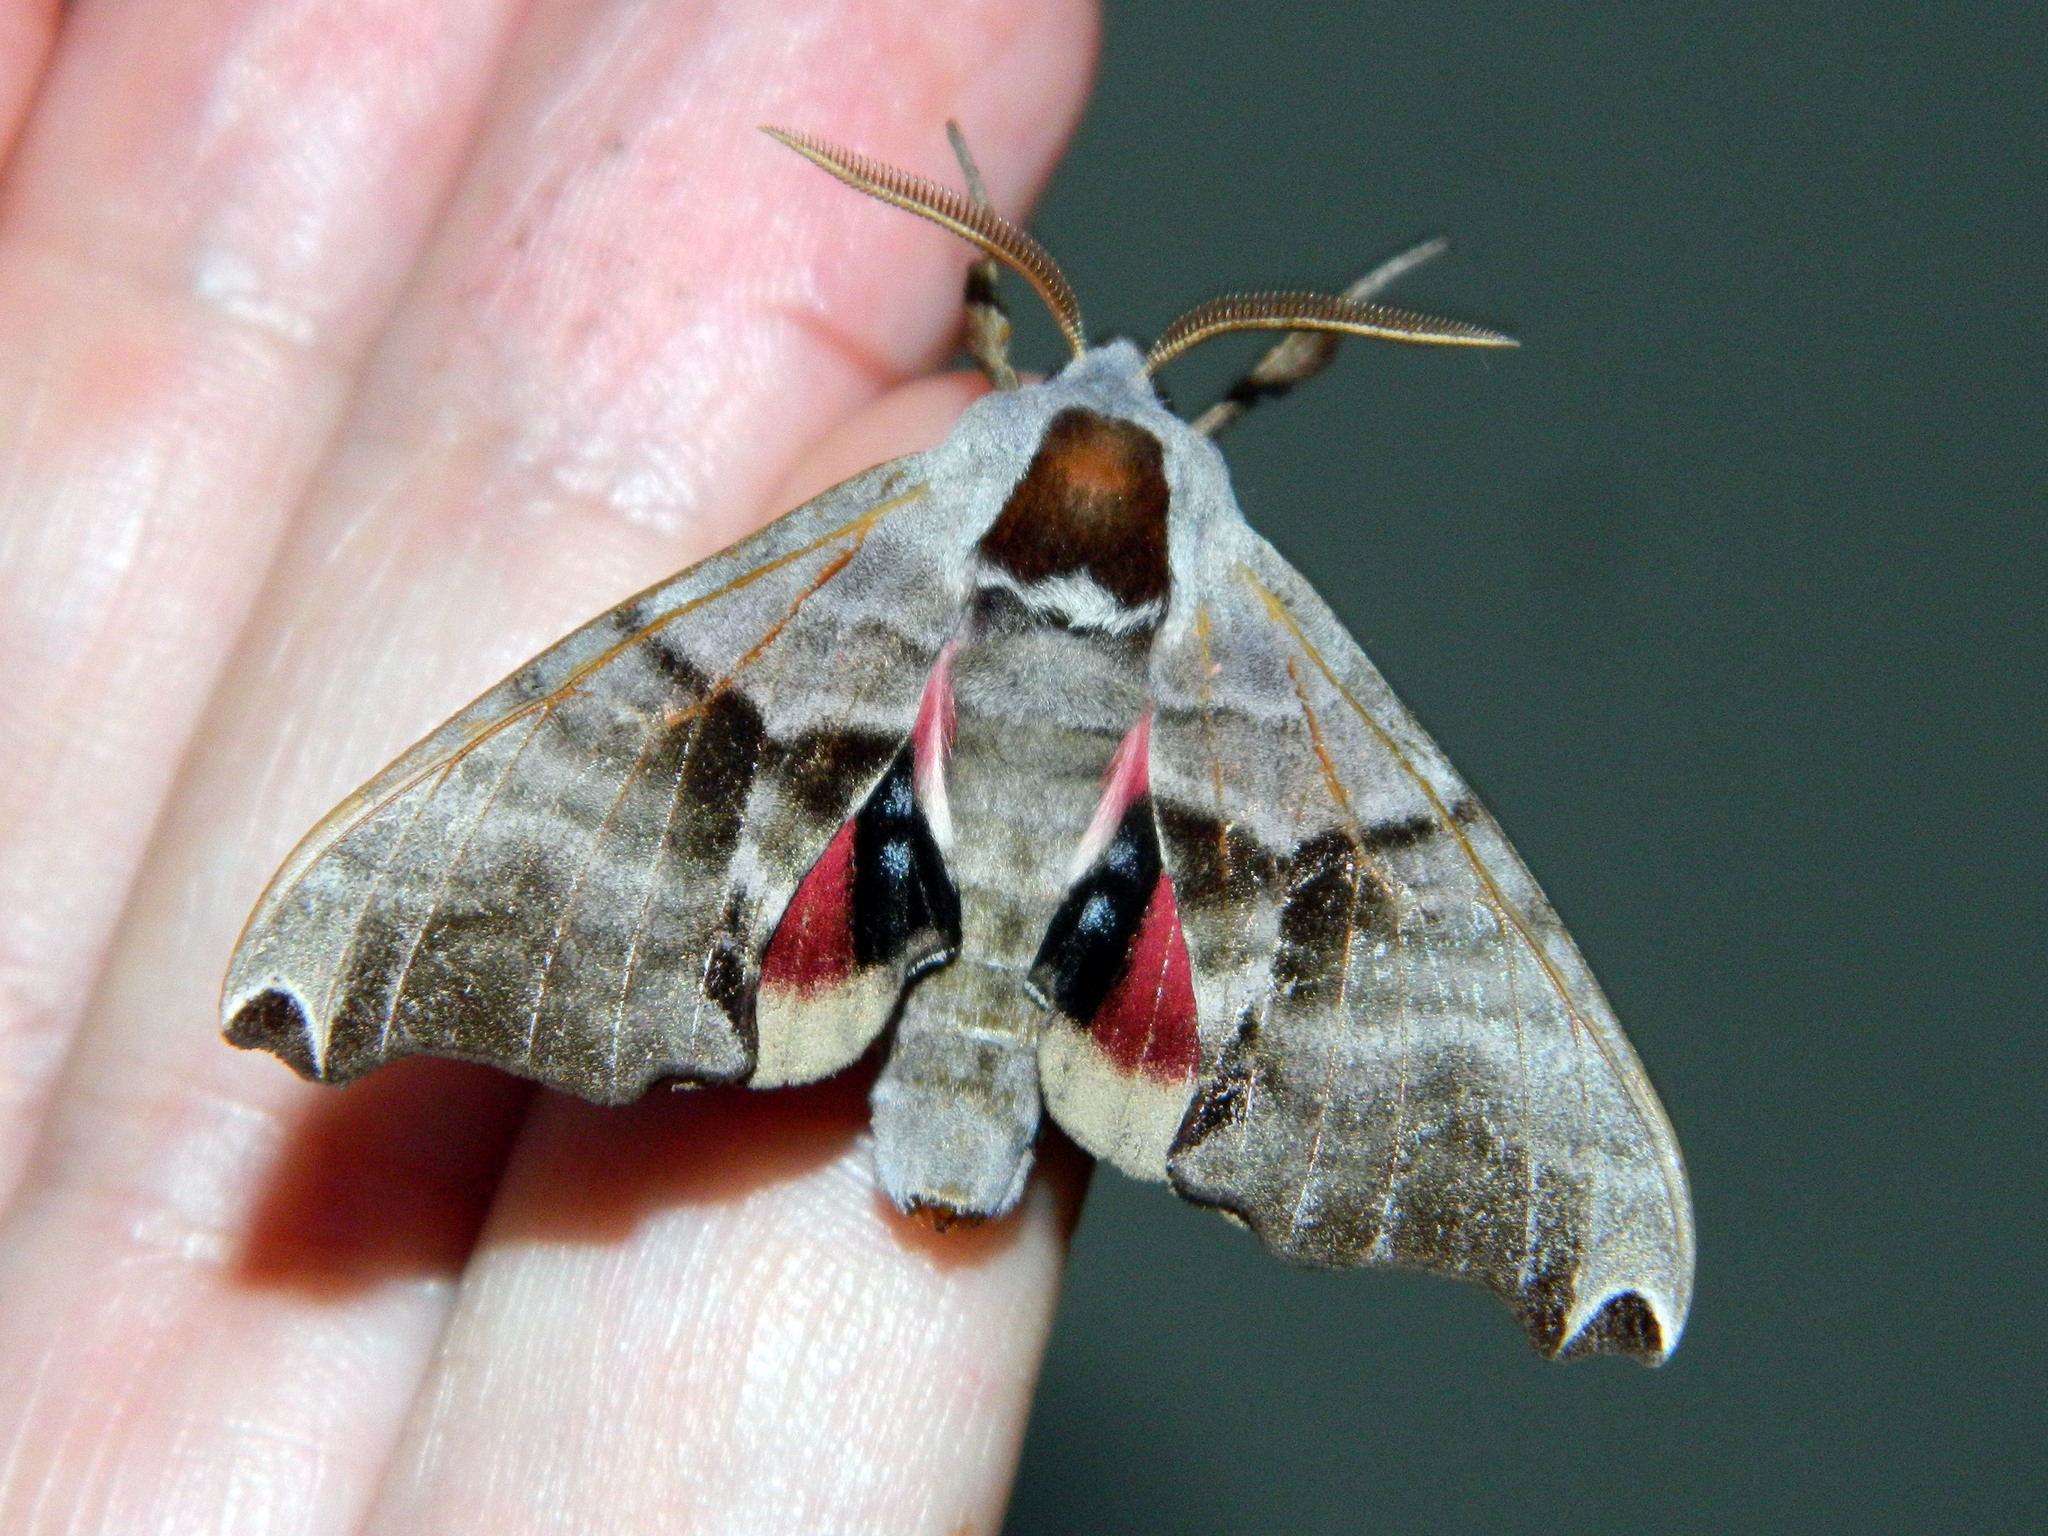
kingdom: Animalia
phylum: Arthropoda
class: Insecta
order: Lepidoptera
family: Sphingidae
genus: Smerinthus
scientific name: Smerinthus jamaicensis
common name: Twin spotted sphinx
